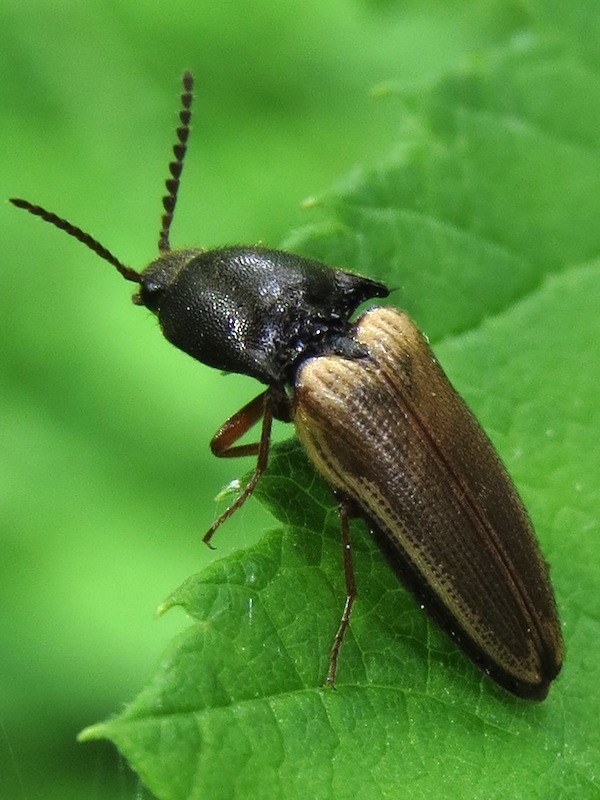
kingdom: Animalia
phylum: Arthropoda
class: Insecta
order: Coleoptera
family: Elateridae
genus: Ampedus
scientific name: Ampedus nigricollis
